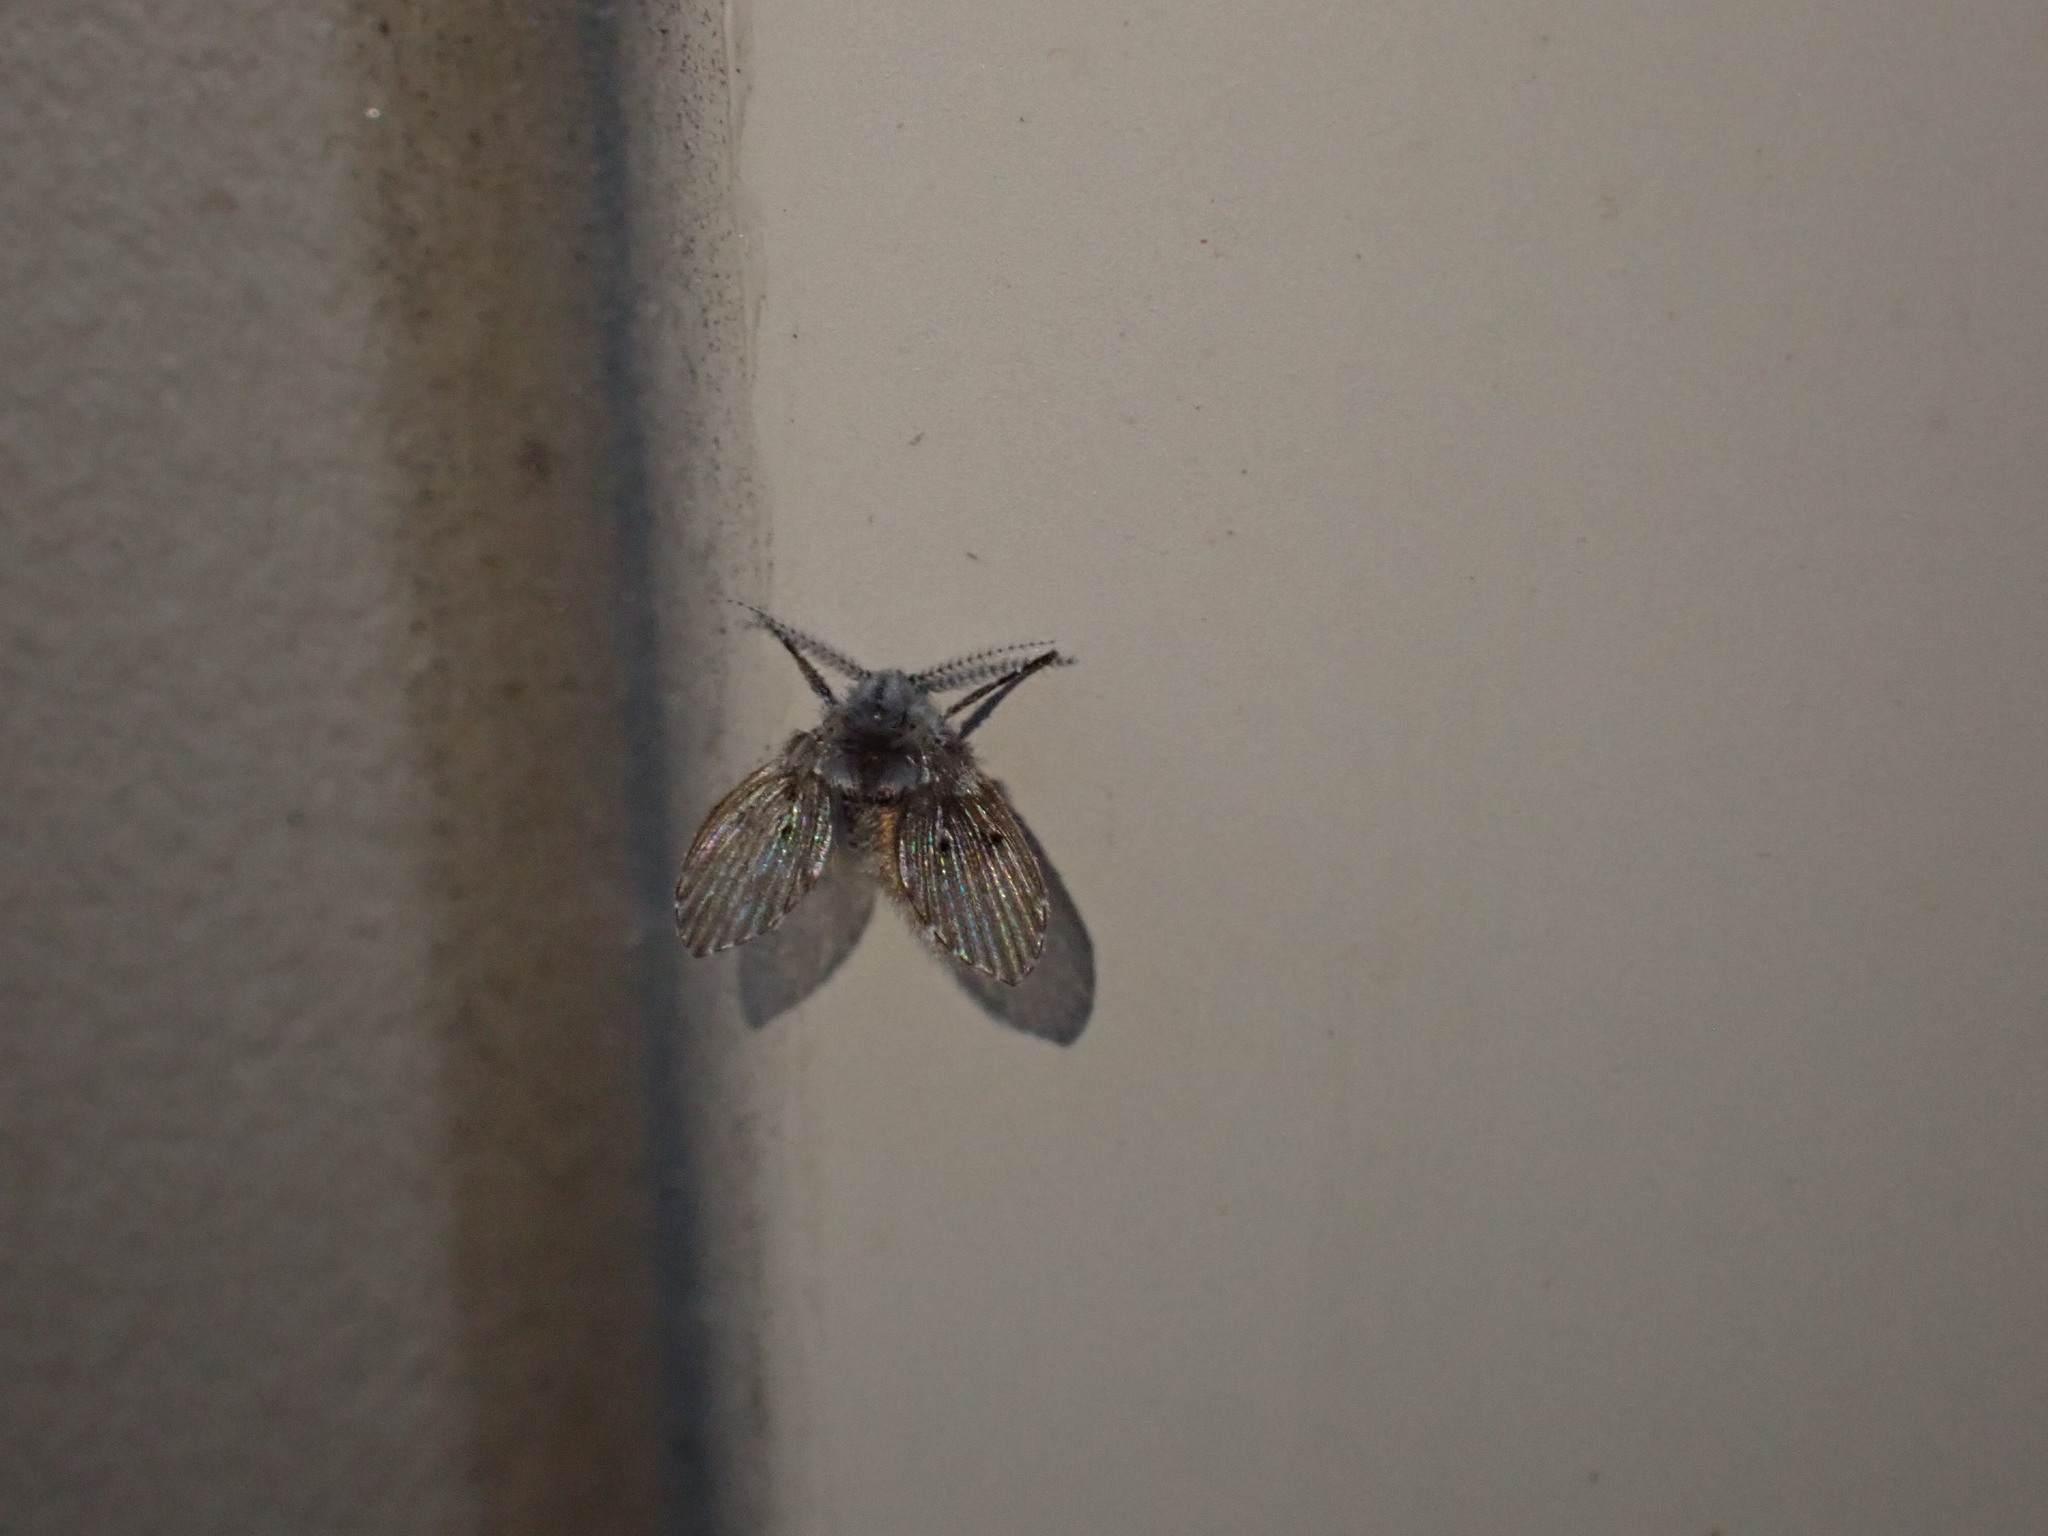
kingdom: Animalia
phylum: Arthropoda
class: Insecta
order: Diptera
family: Psychodidae
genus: Clogmia
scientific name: Clogmia albipunctatus
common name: White-spotted moth fly
